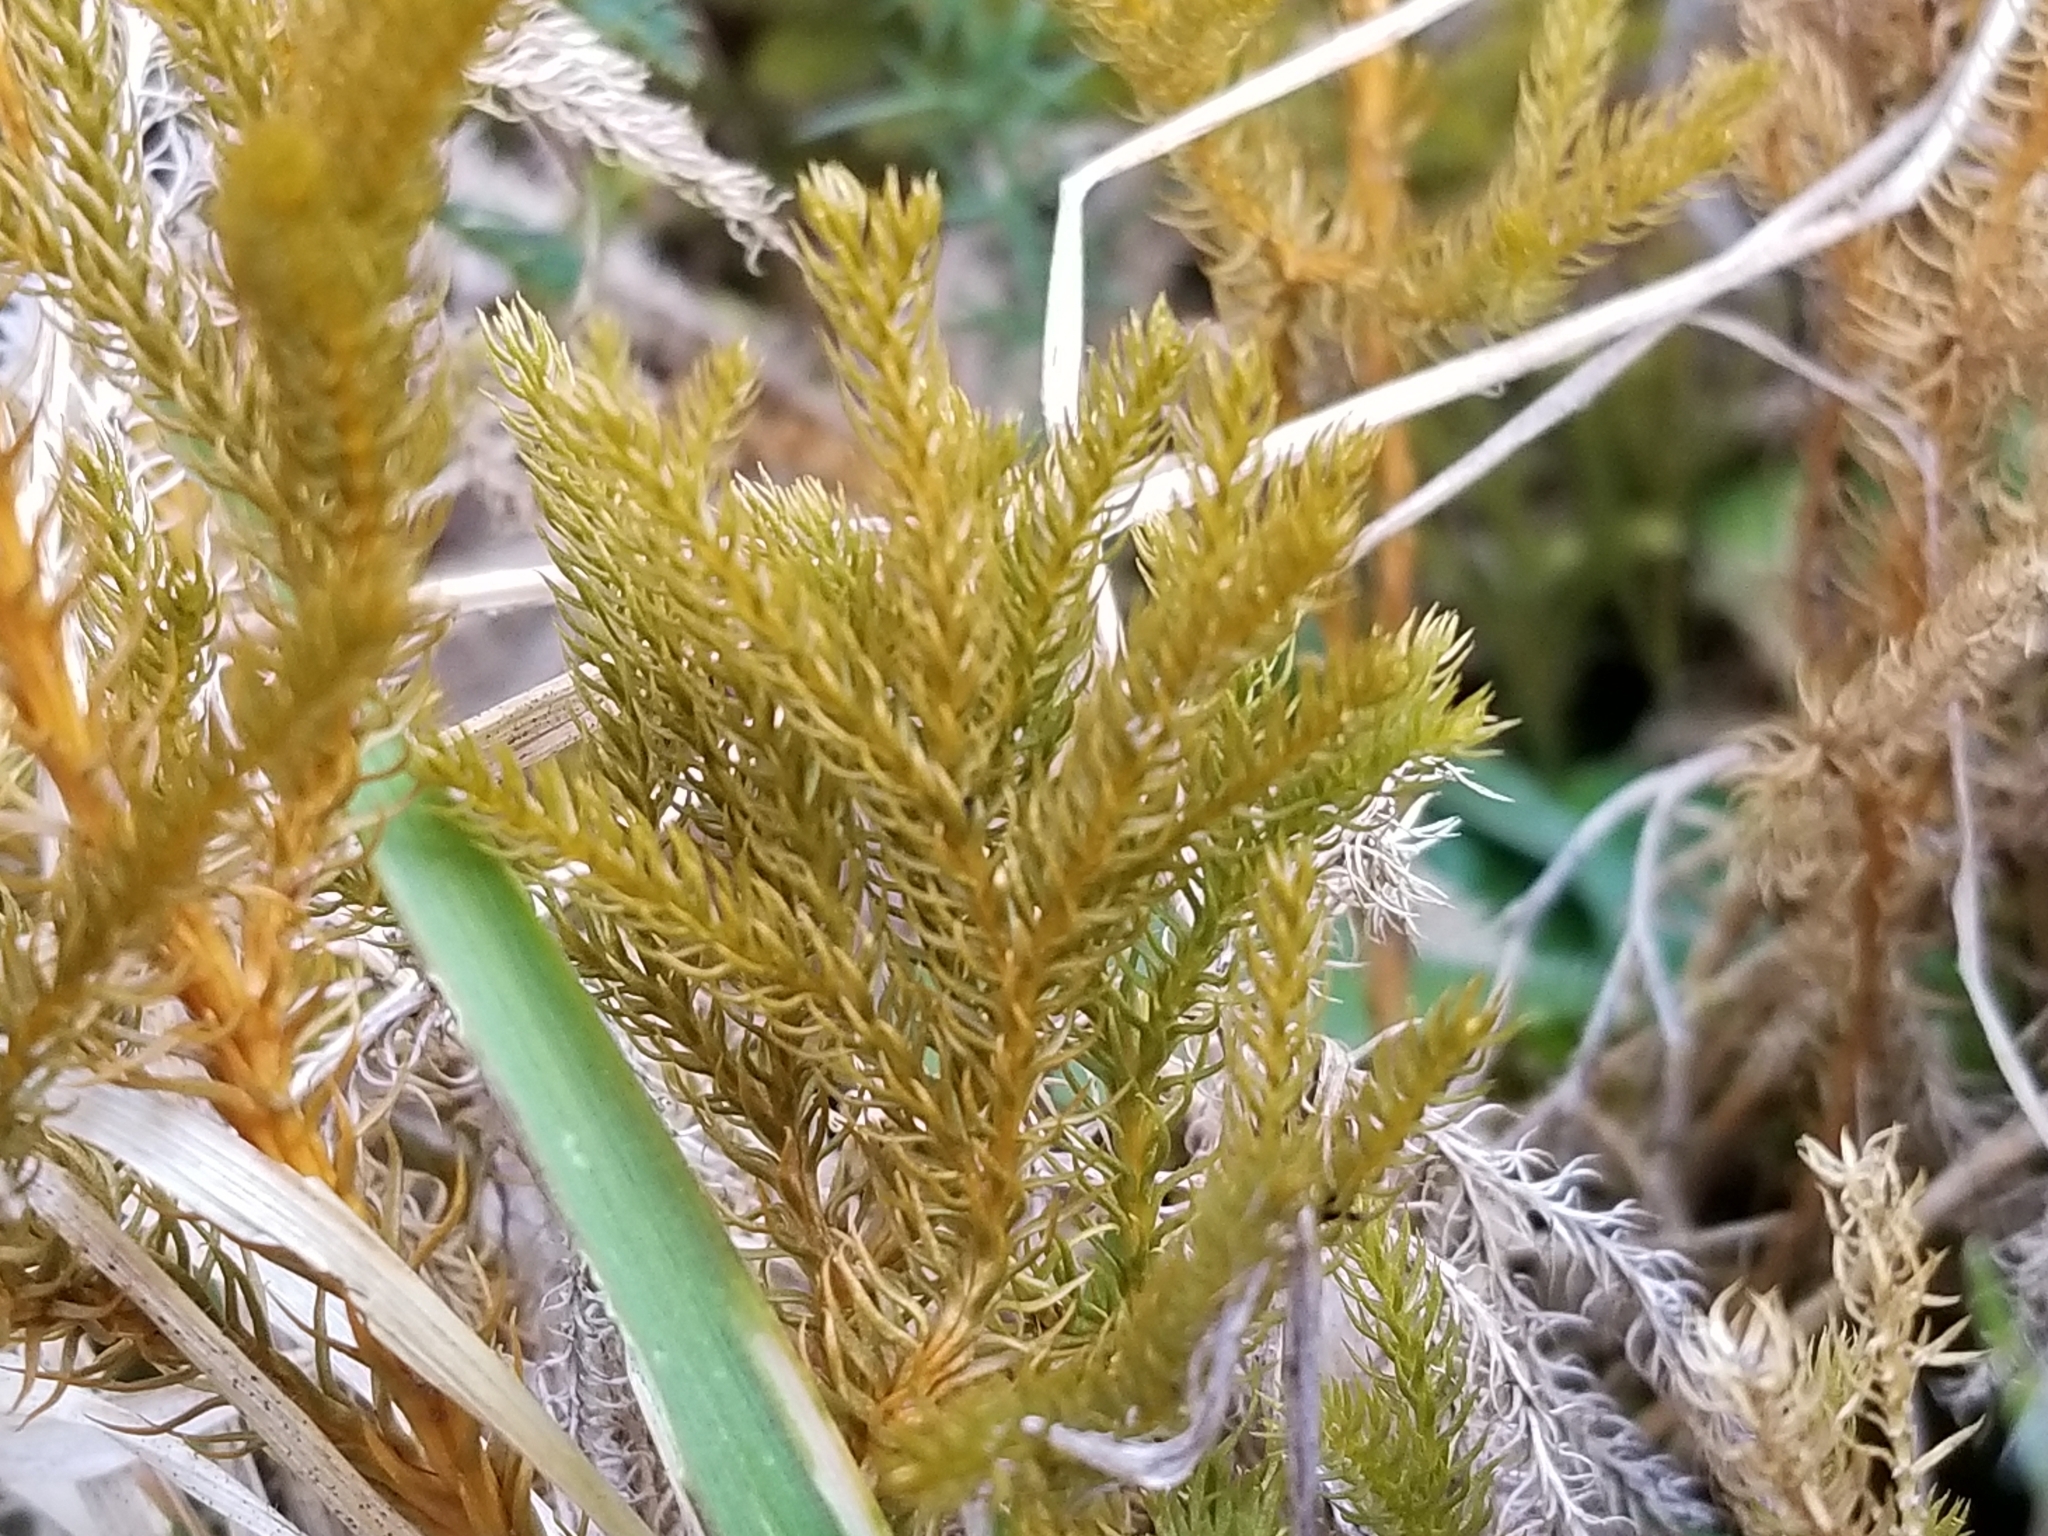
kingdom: Plantae
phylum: Tracheophyta
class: Lycopodiopsida
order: Lycopodiales
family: Lycopodiaceae
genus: Austrolycopodium
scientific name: Austrolycopodium fastigiatum
